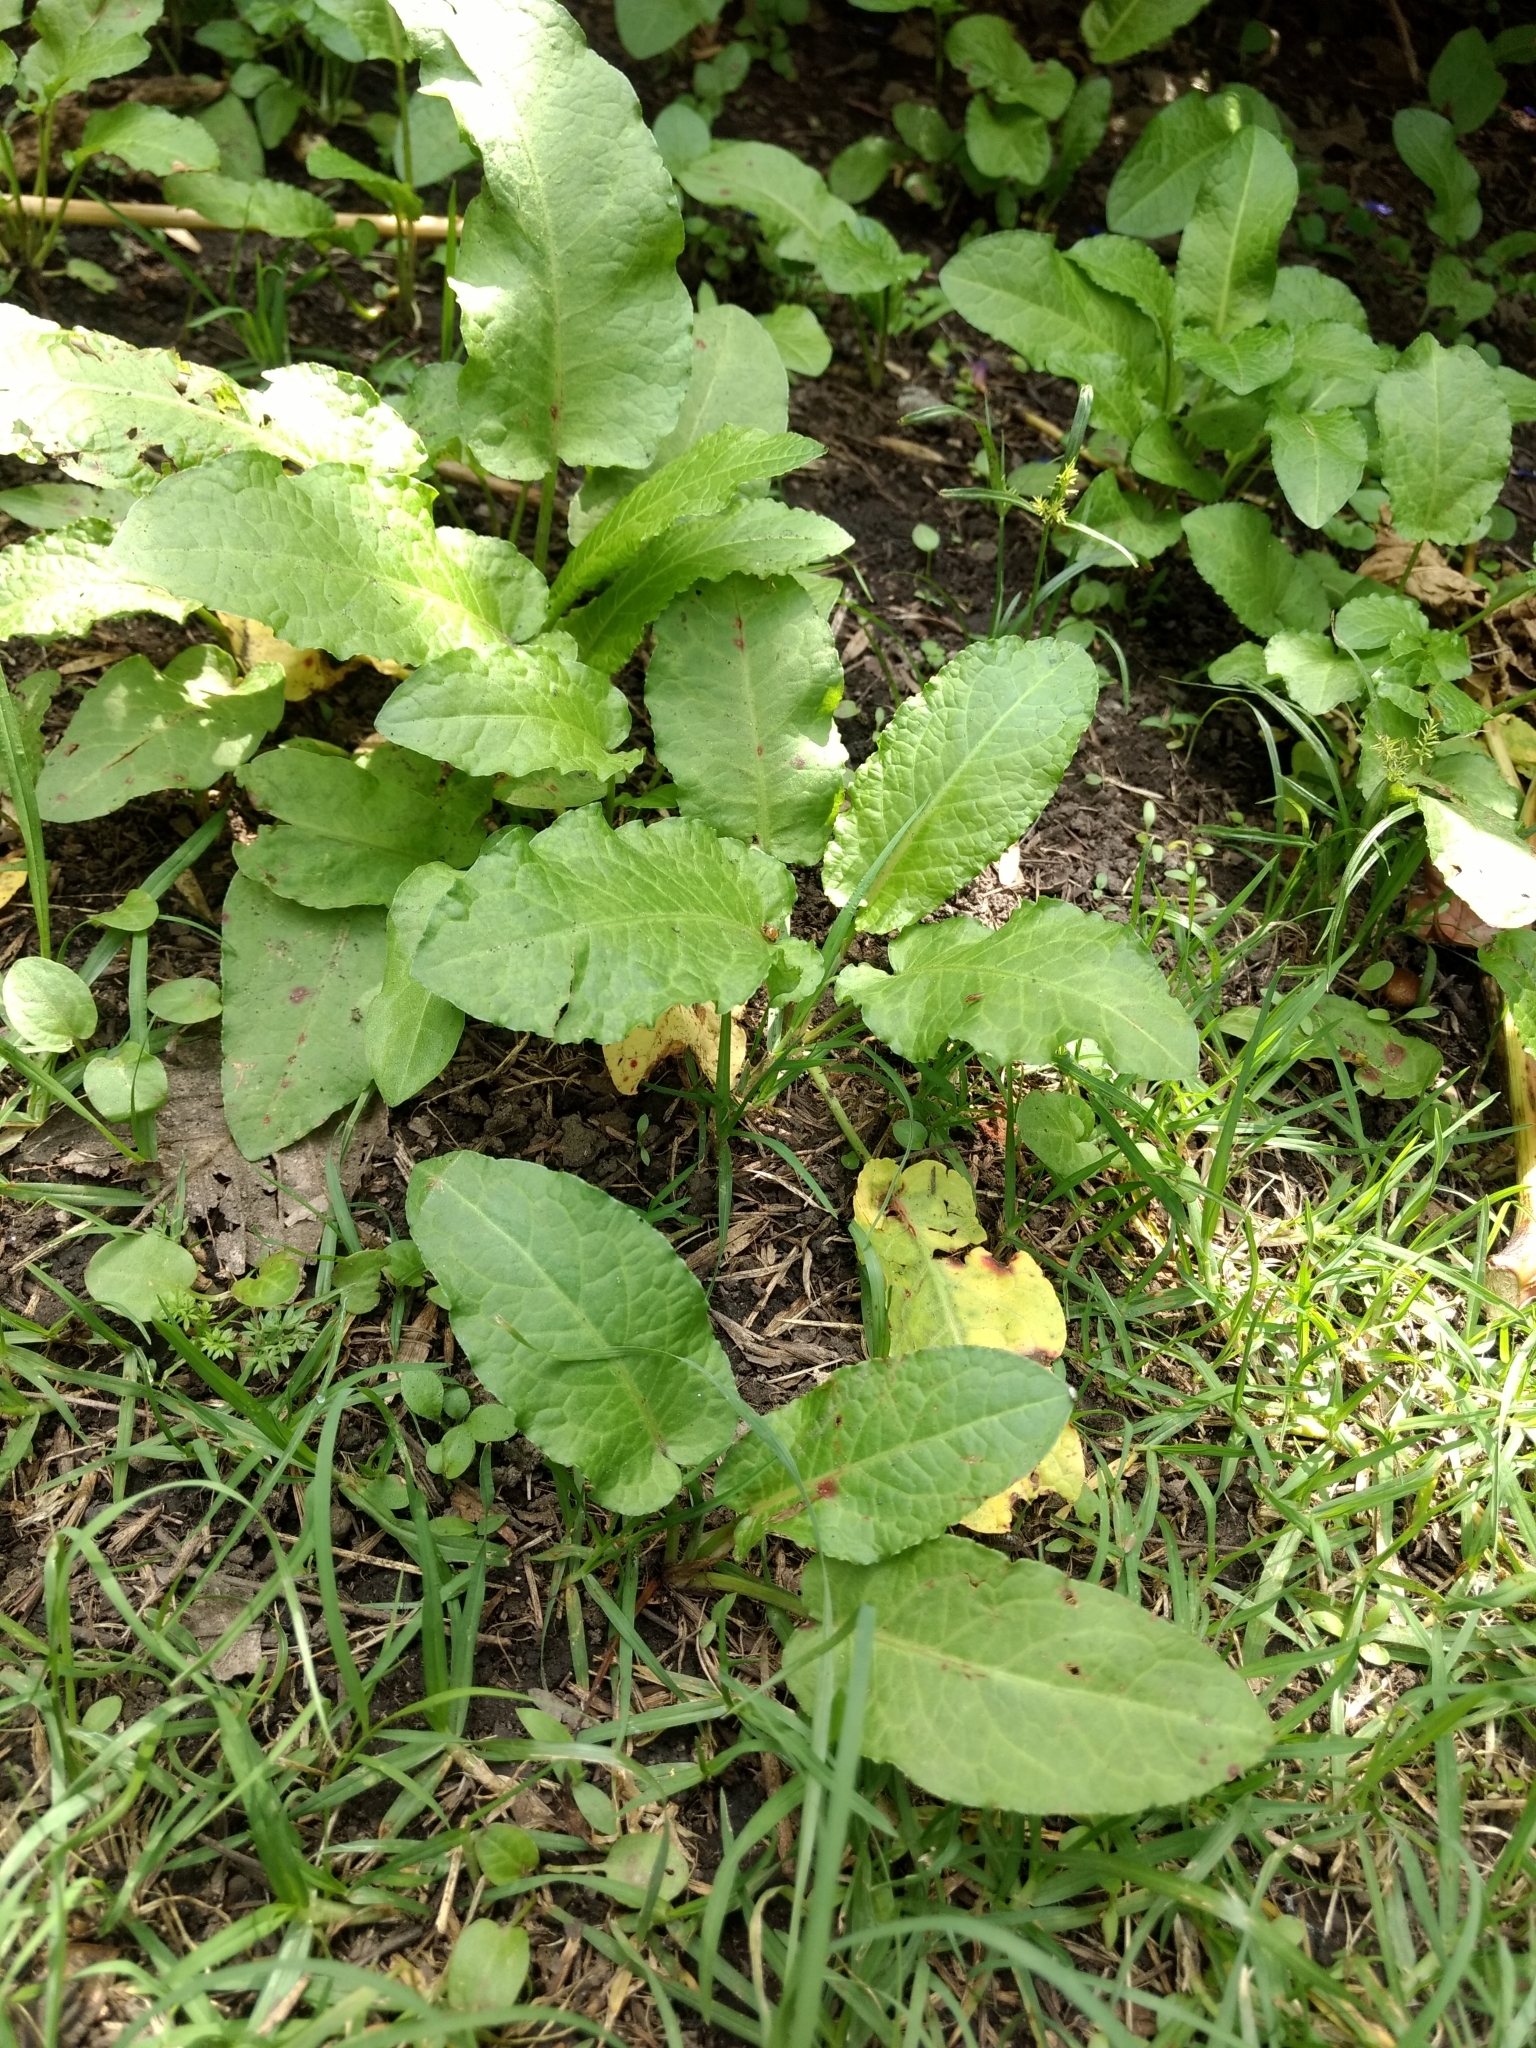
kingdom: Plantae
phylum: Tracheophyta
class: Magnoliopsida
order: Caryophyllales
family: Polygonaceae
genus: Rumex
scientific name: Rumex obtusifolius
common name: Bitter dock
